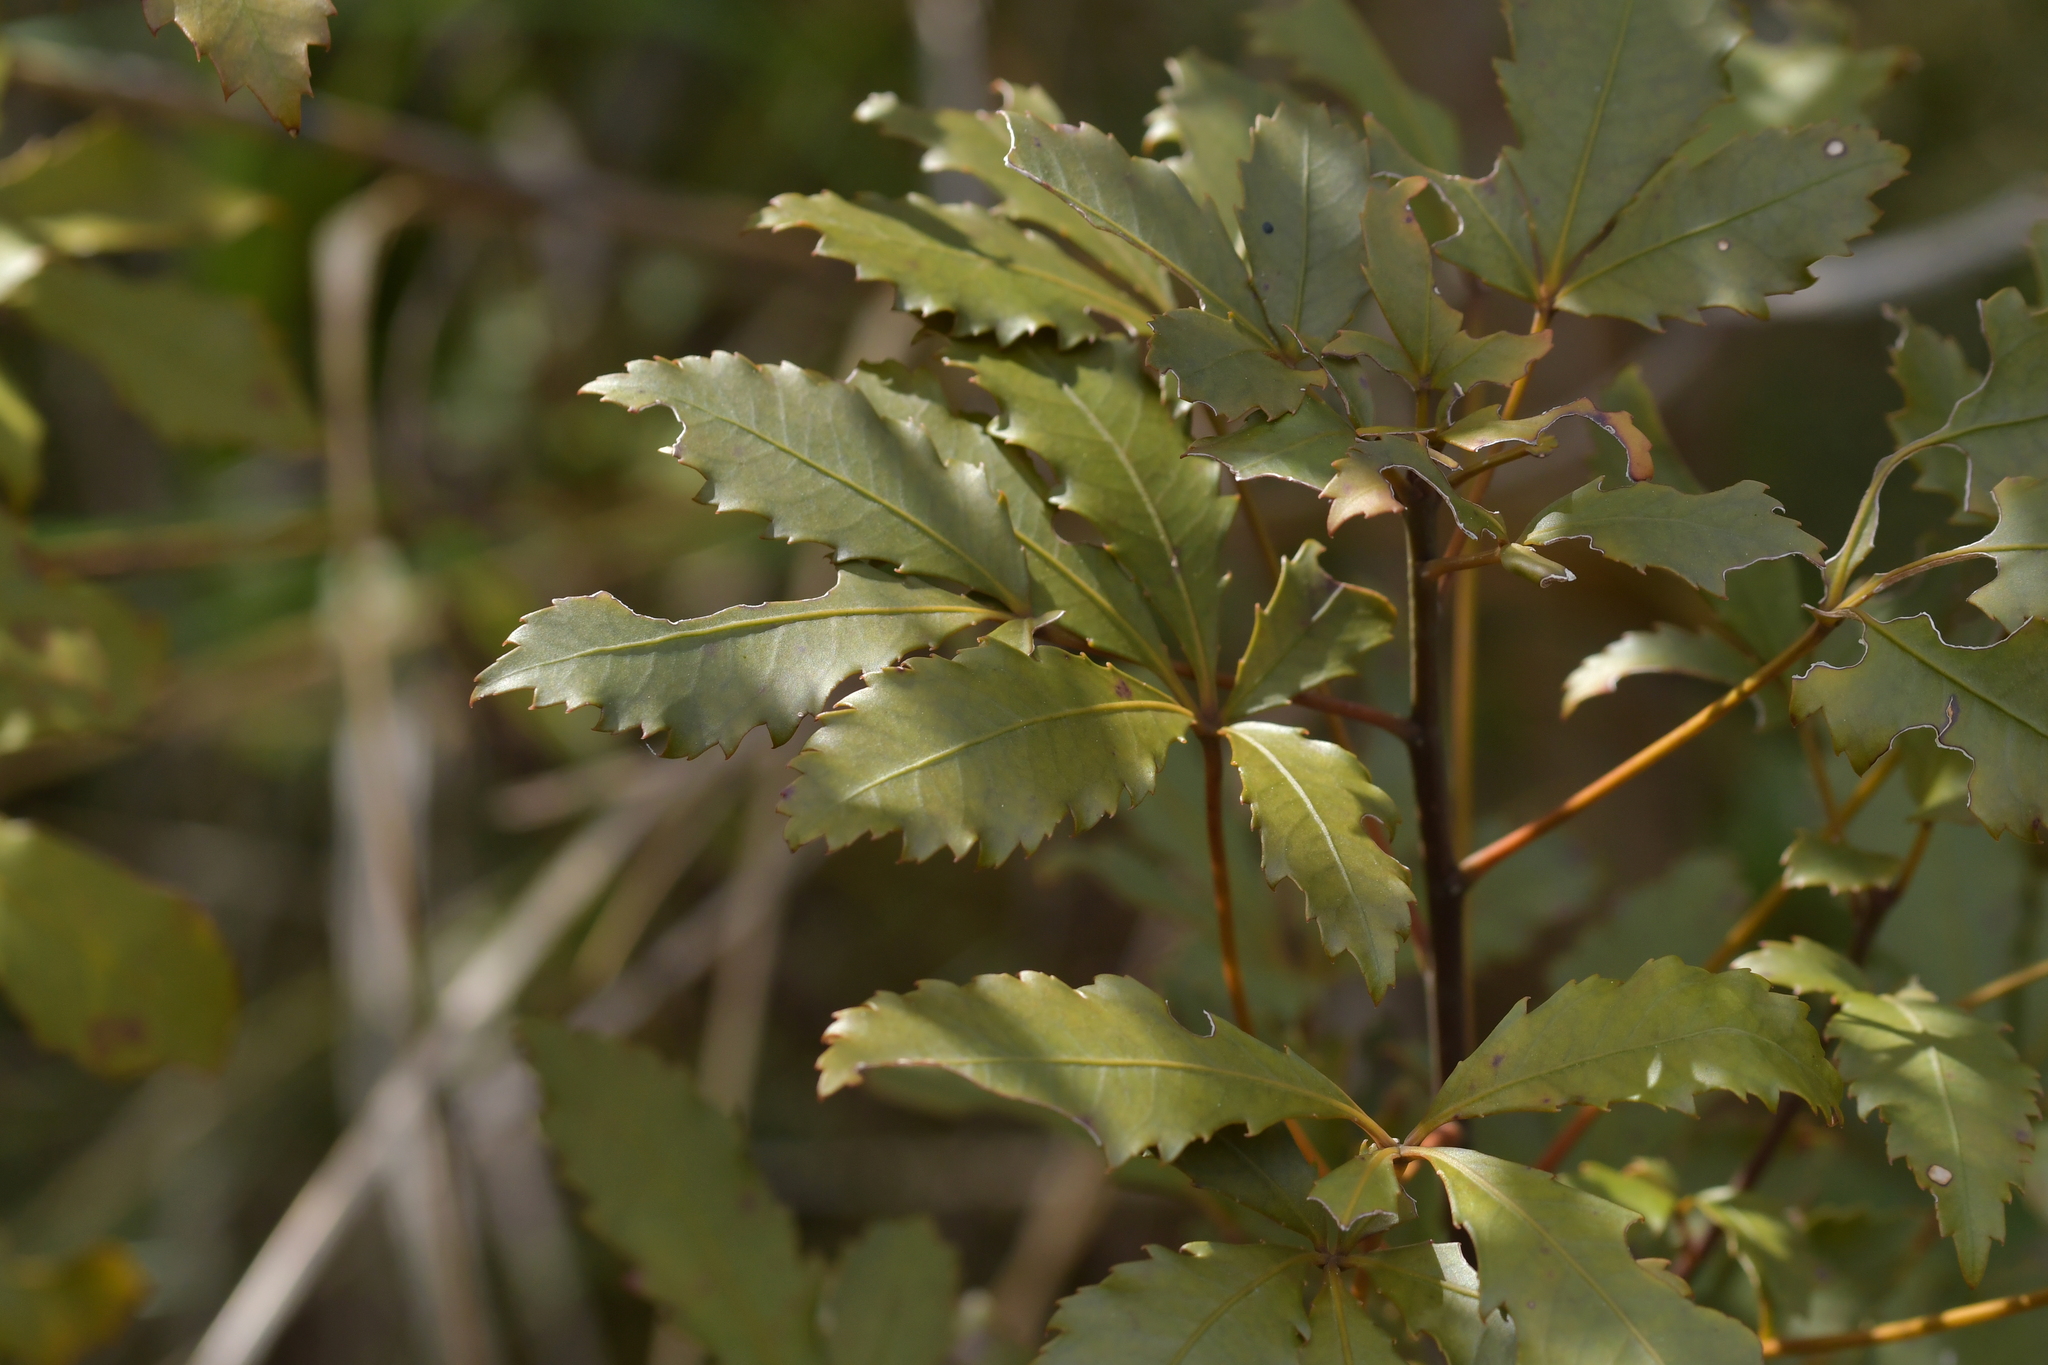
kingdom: Plantae
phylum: Tracheophyta
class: Magnoliopsida
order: Apiales
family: Araliaceae
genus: Pseudopanax
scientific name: Pseudopanax discolor
